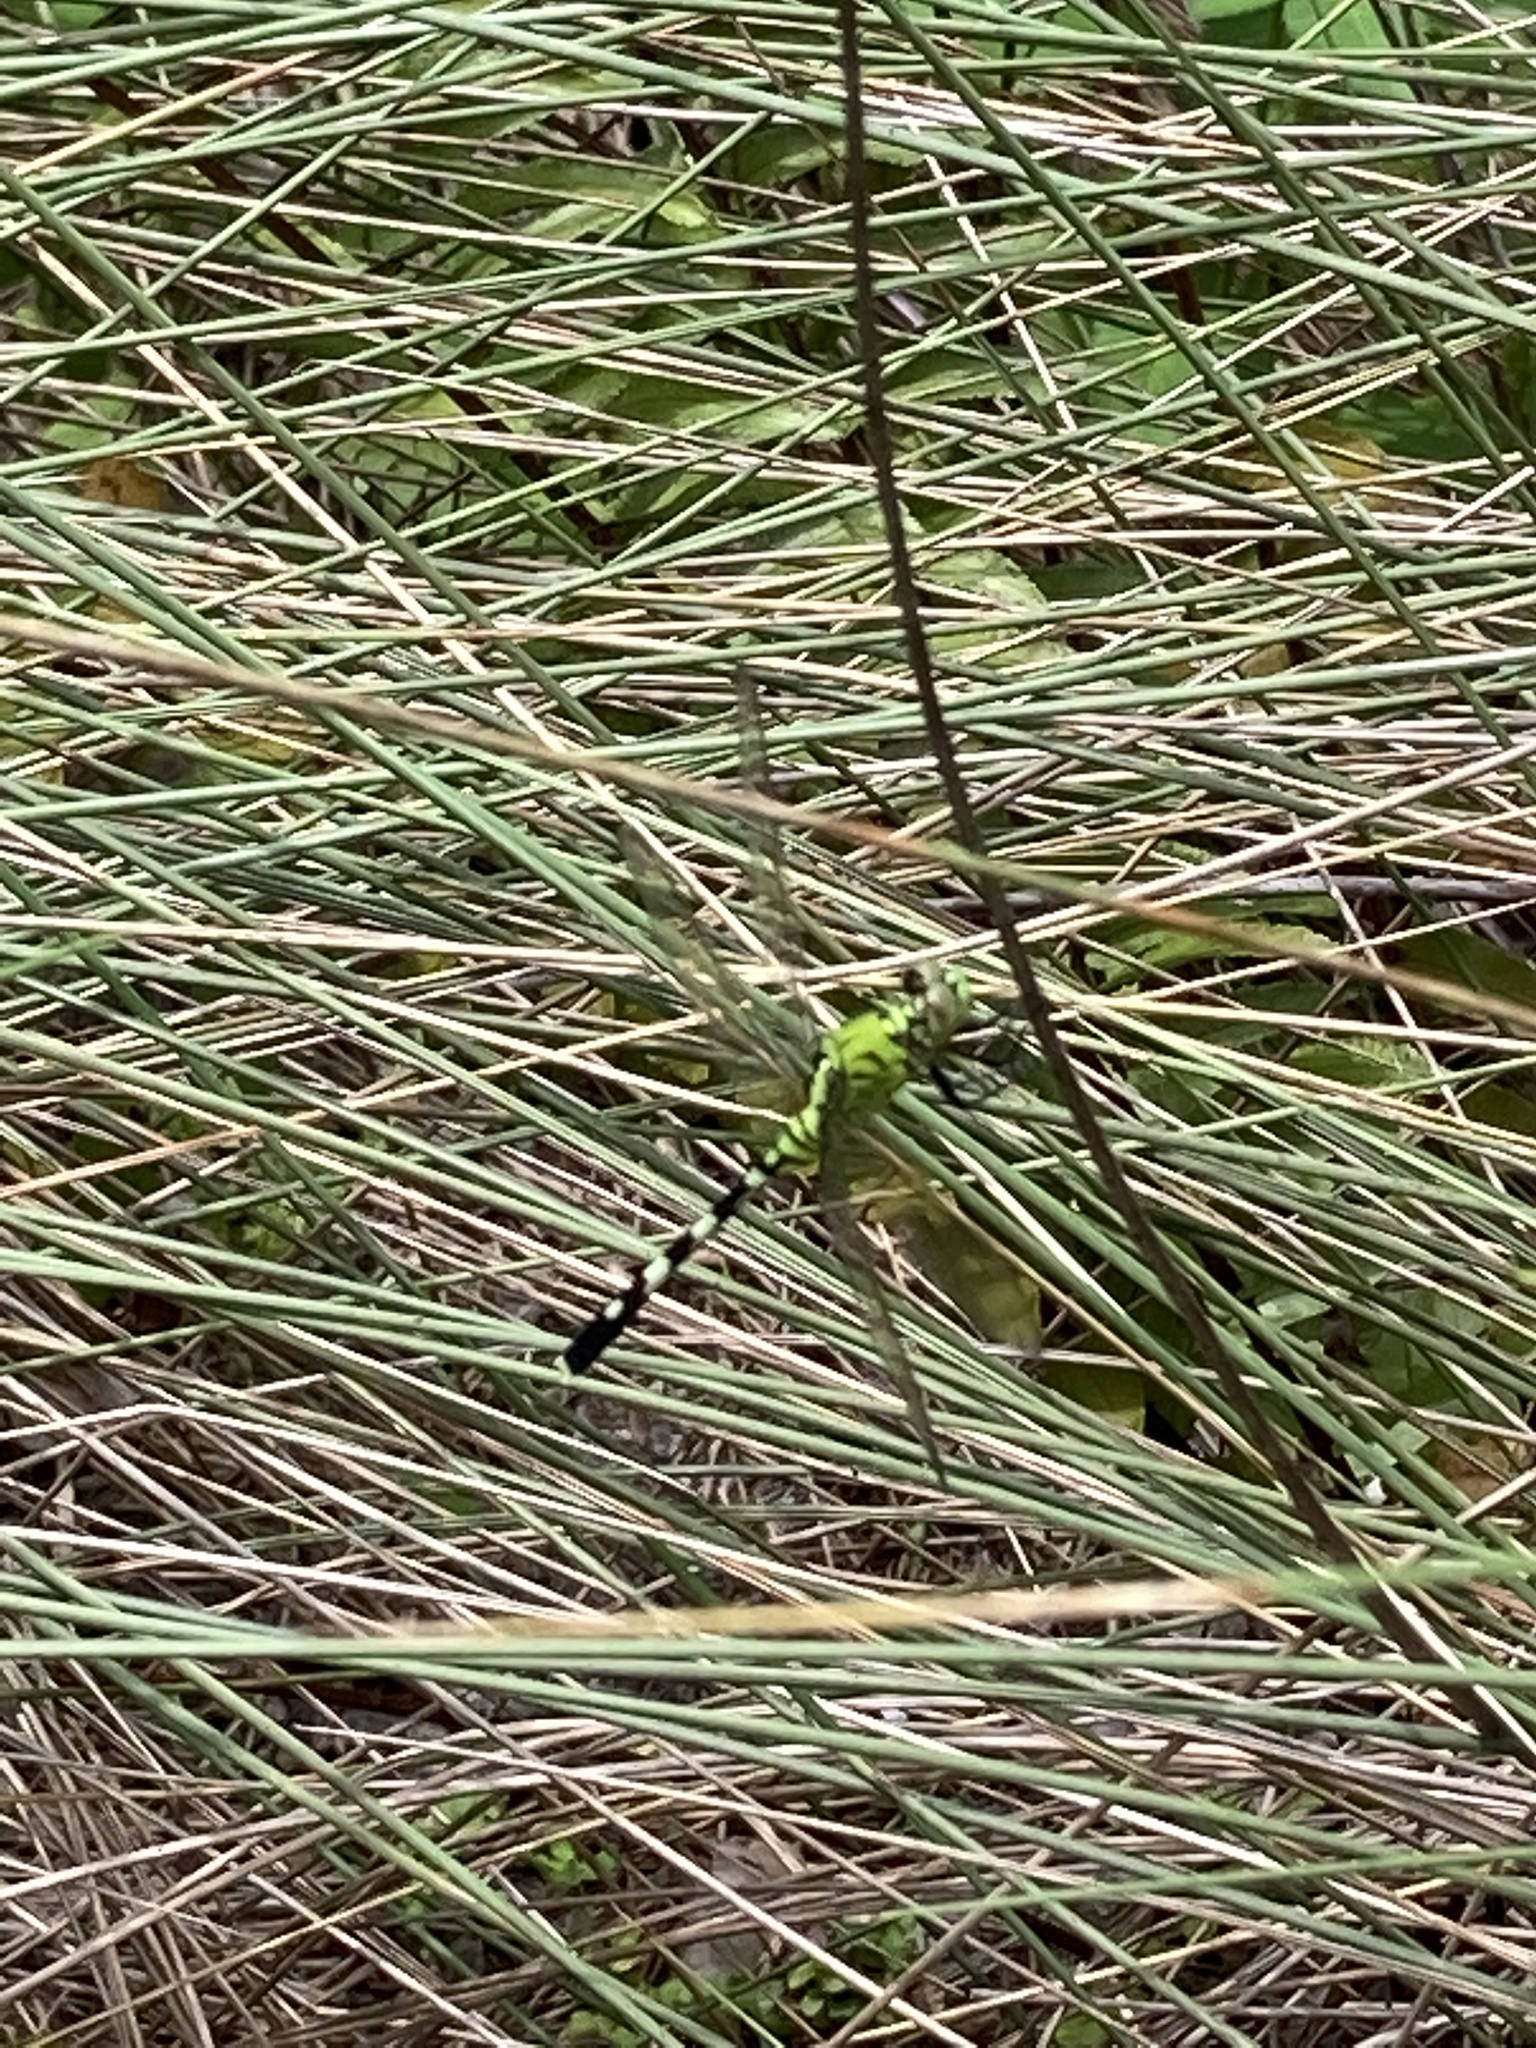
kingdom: Animalia
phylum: Arthropoda
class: Insecta
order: Odonata
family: Libellulidae
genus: Erythemis
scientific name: Erythemis simplicicollis
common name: Eastern pondhawk
